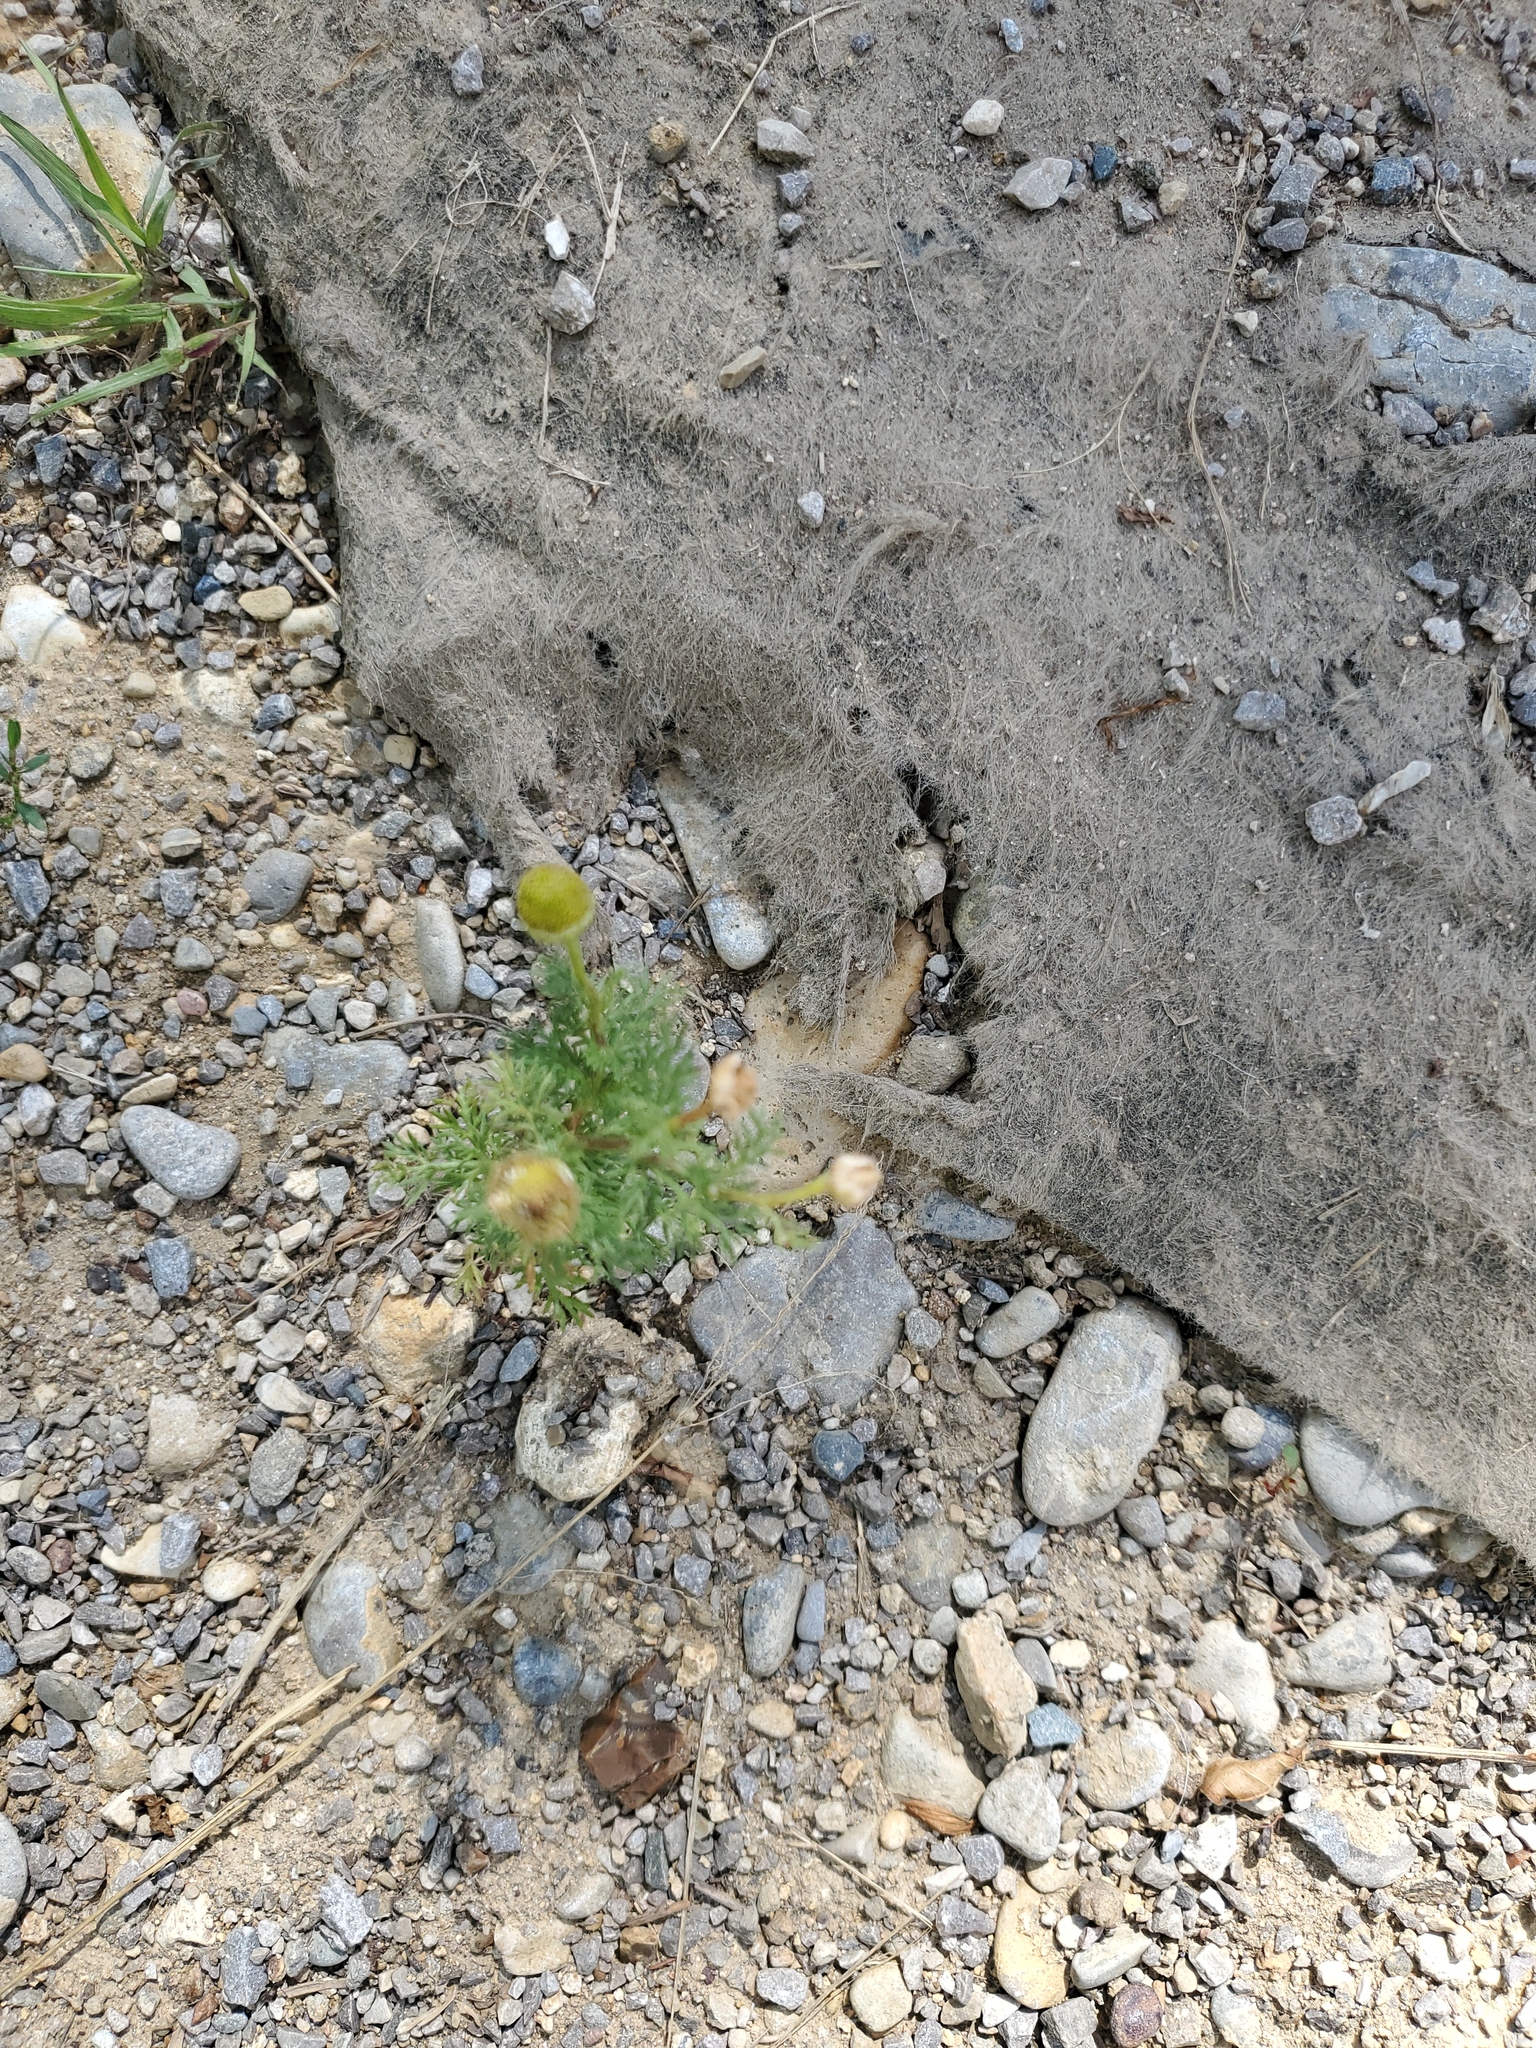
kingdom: Plantae
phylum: Tracheophyta
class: Magnoliopsida
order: Asterales
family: Asteraceae
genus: Matricaria
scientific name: Matricaria discoidea
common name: Disc mayweed
